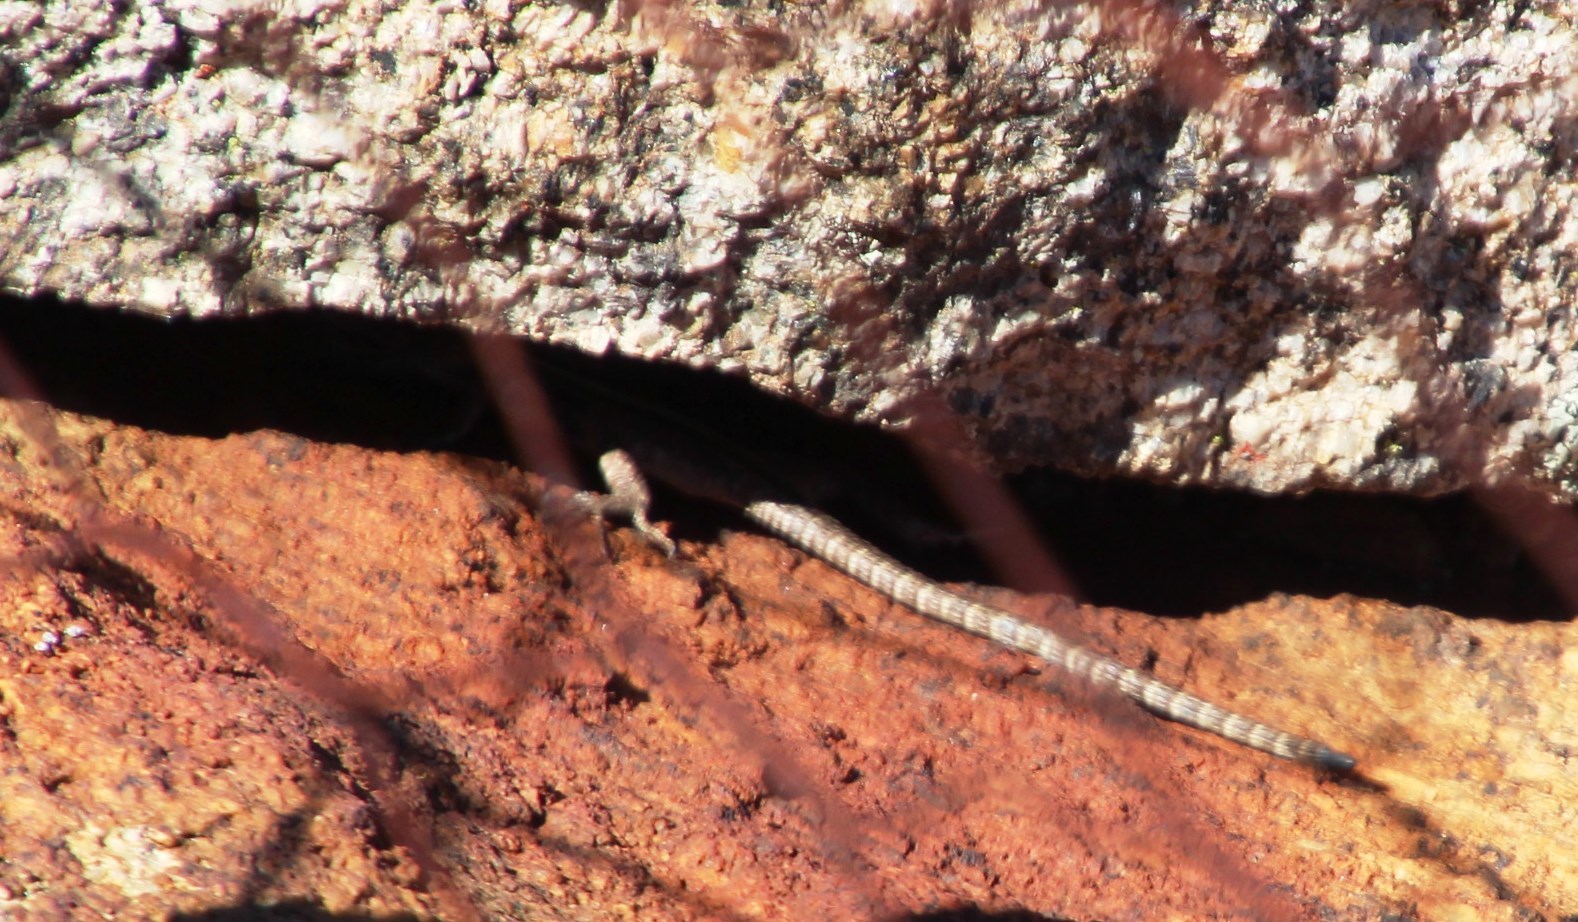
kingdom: Animalia
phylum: Chordata
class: Squamata
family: Cordylidae
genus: Platysaurus
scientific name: Platysaurus capensis
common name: Namaqua flat lizard
